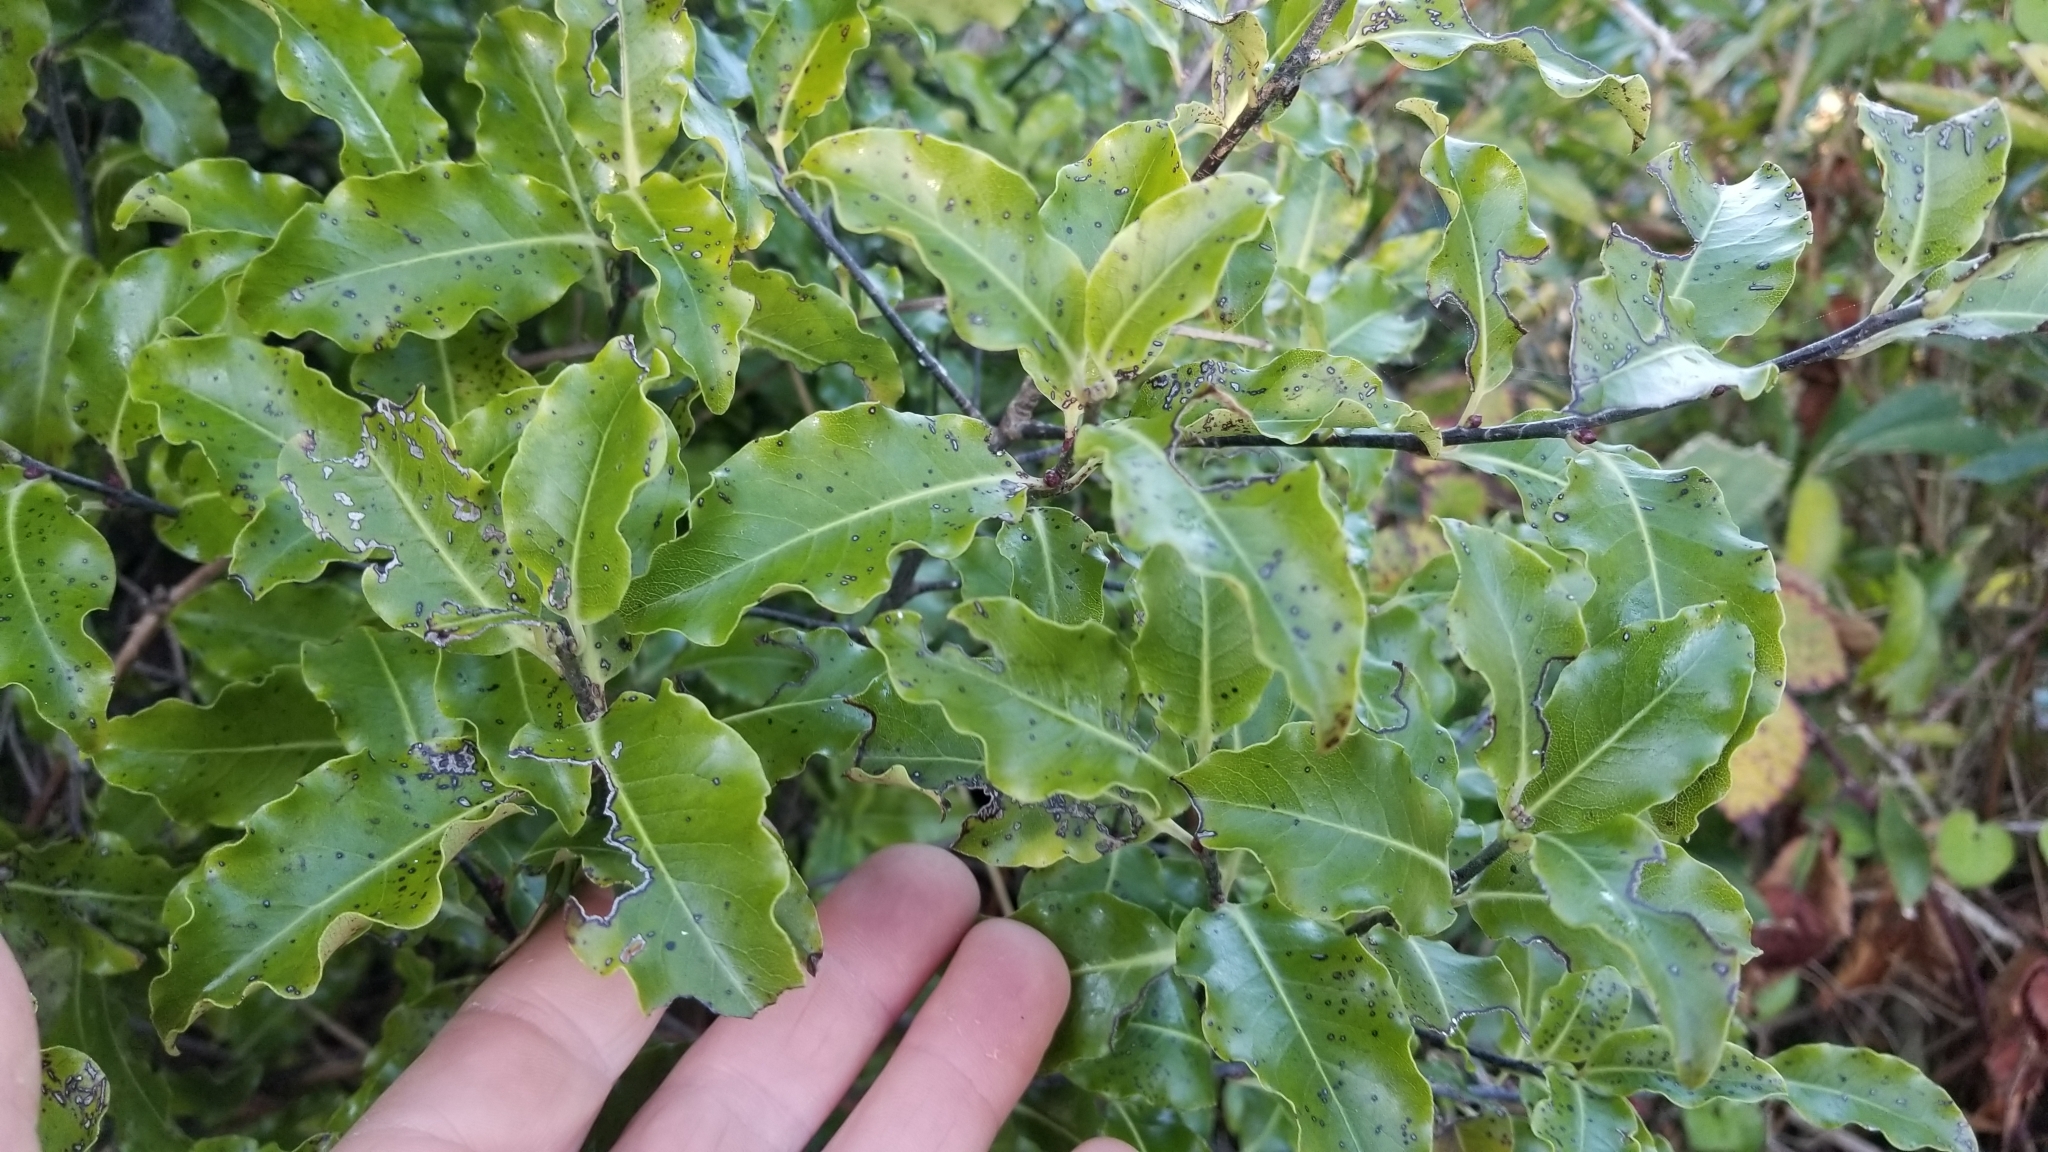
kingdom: Plantae
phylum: Tracheophyta
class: Magnoliopsida
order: Apiales
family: Pittosporaceae
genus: Pittosporum
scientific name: Pittosporum eugenioides
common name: Lemonwood
